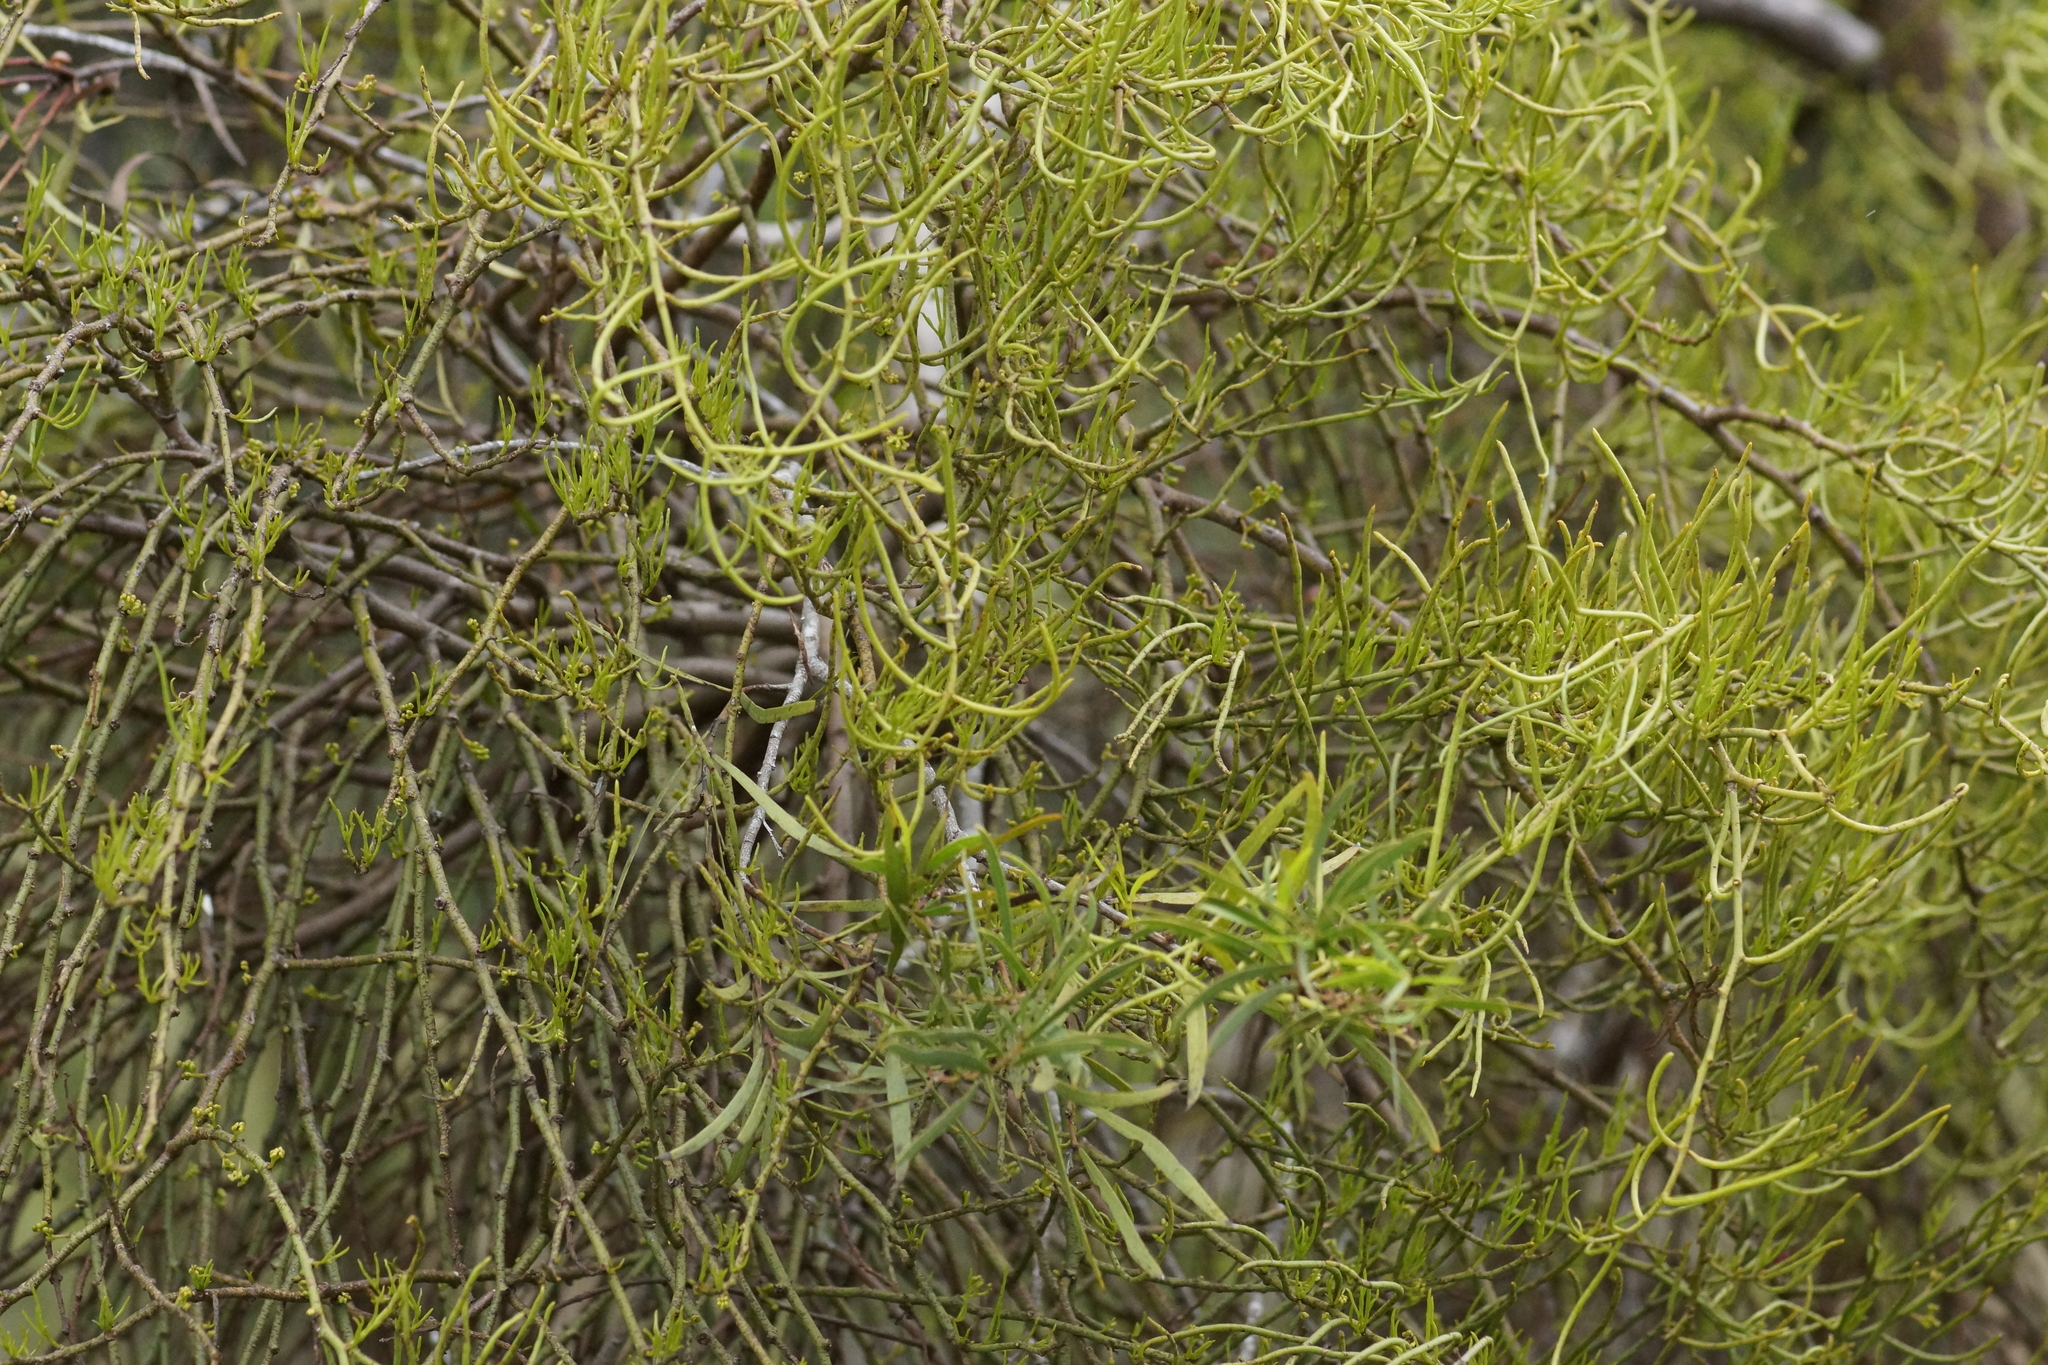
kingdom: Plantae
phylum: Tracheophyta
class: Magnoliopsida
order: Santalales
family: Loranthaceae
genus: Amyema
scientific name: Amyema preissii
